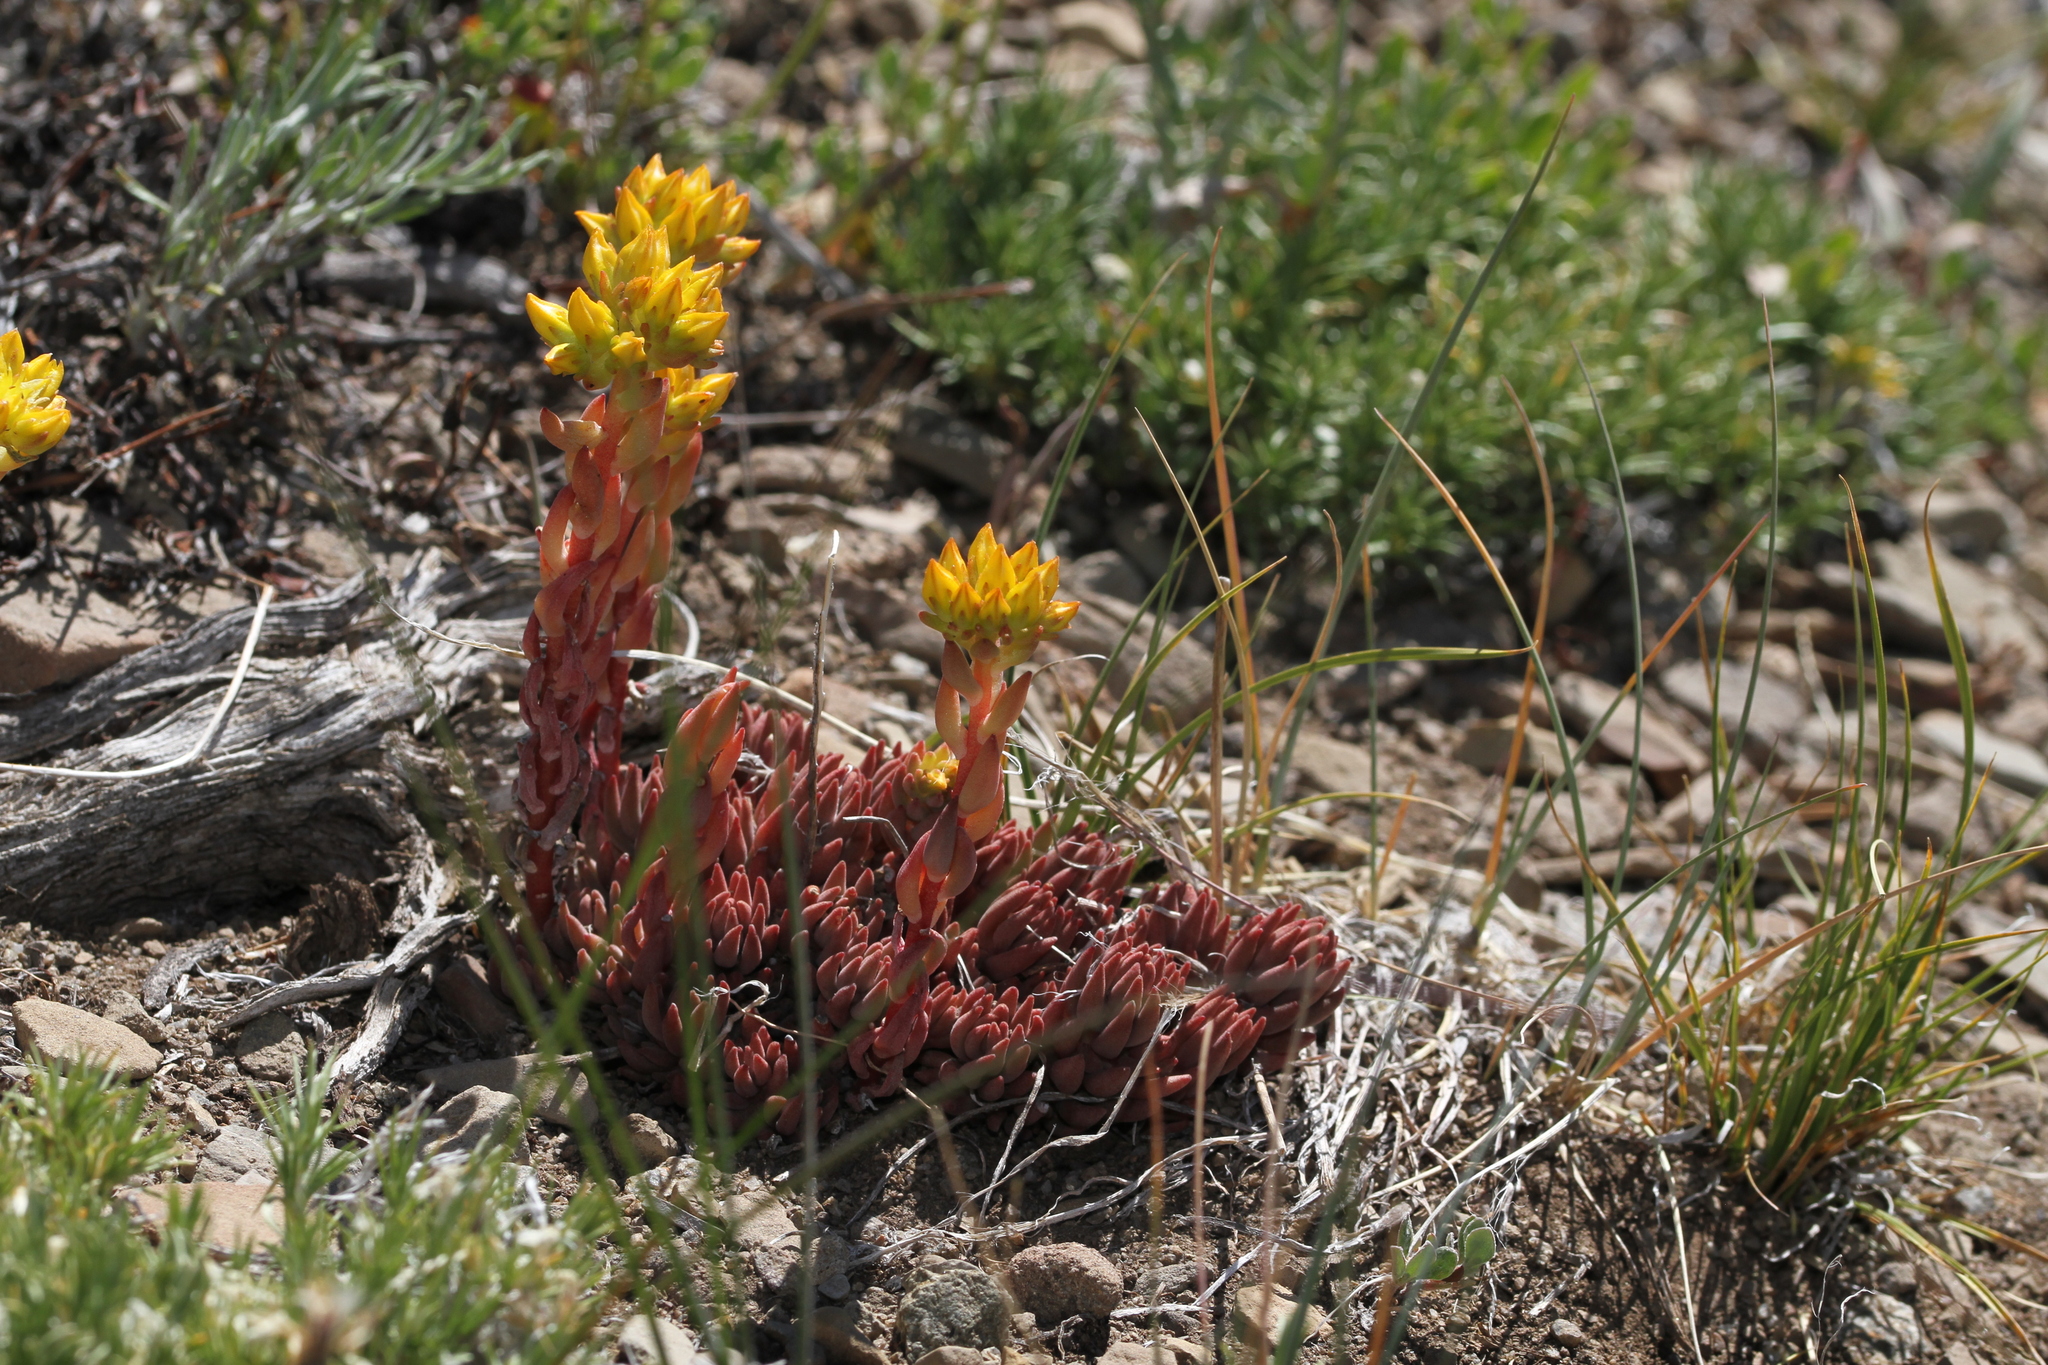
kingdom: Plantae
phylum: Tracheophyta
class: Magnoliopsida
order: Saxifragales
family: Crassulaceae
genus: Sedum
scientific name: Sedum lanceolatum
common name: Common stonecrop
